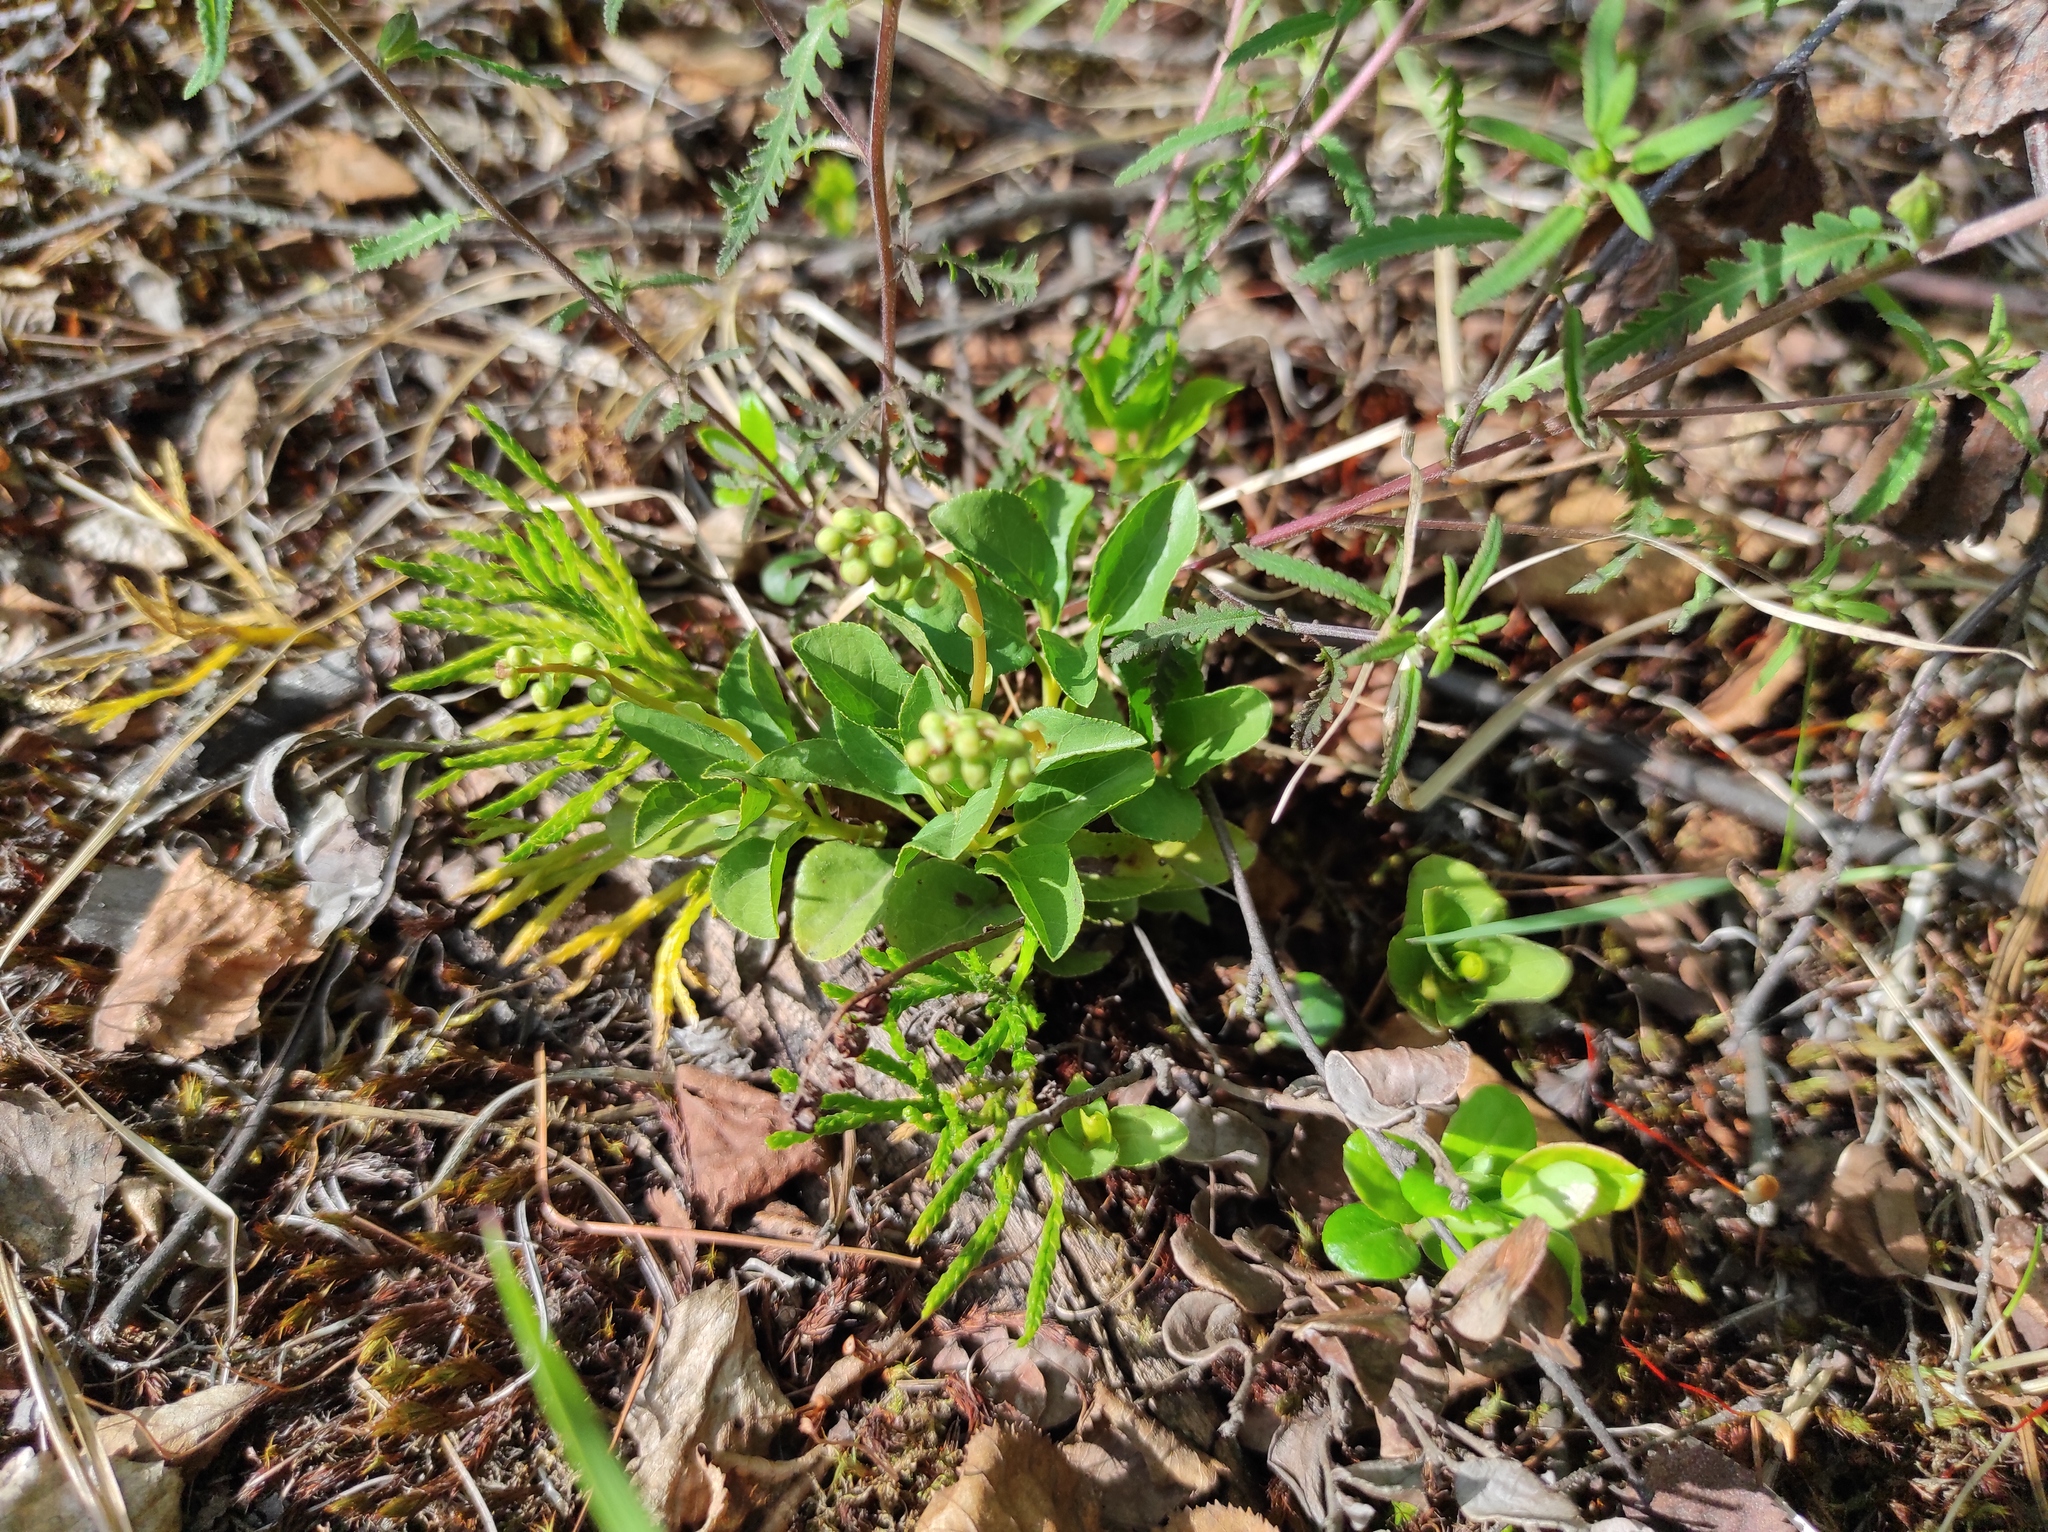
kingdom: Plantae
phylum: Tracheophyta
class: Magnoliopsida
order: Lamiales
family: Orobanchaceae
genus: Pedicularis
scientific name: Pedicularis labradorica
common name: Labrador lousewort
